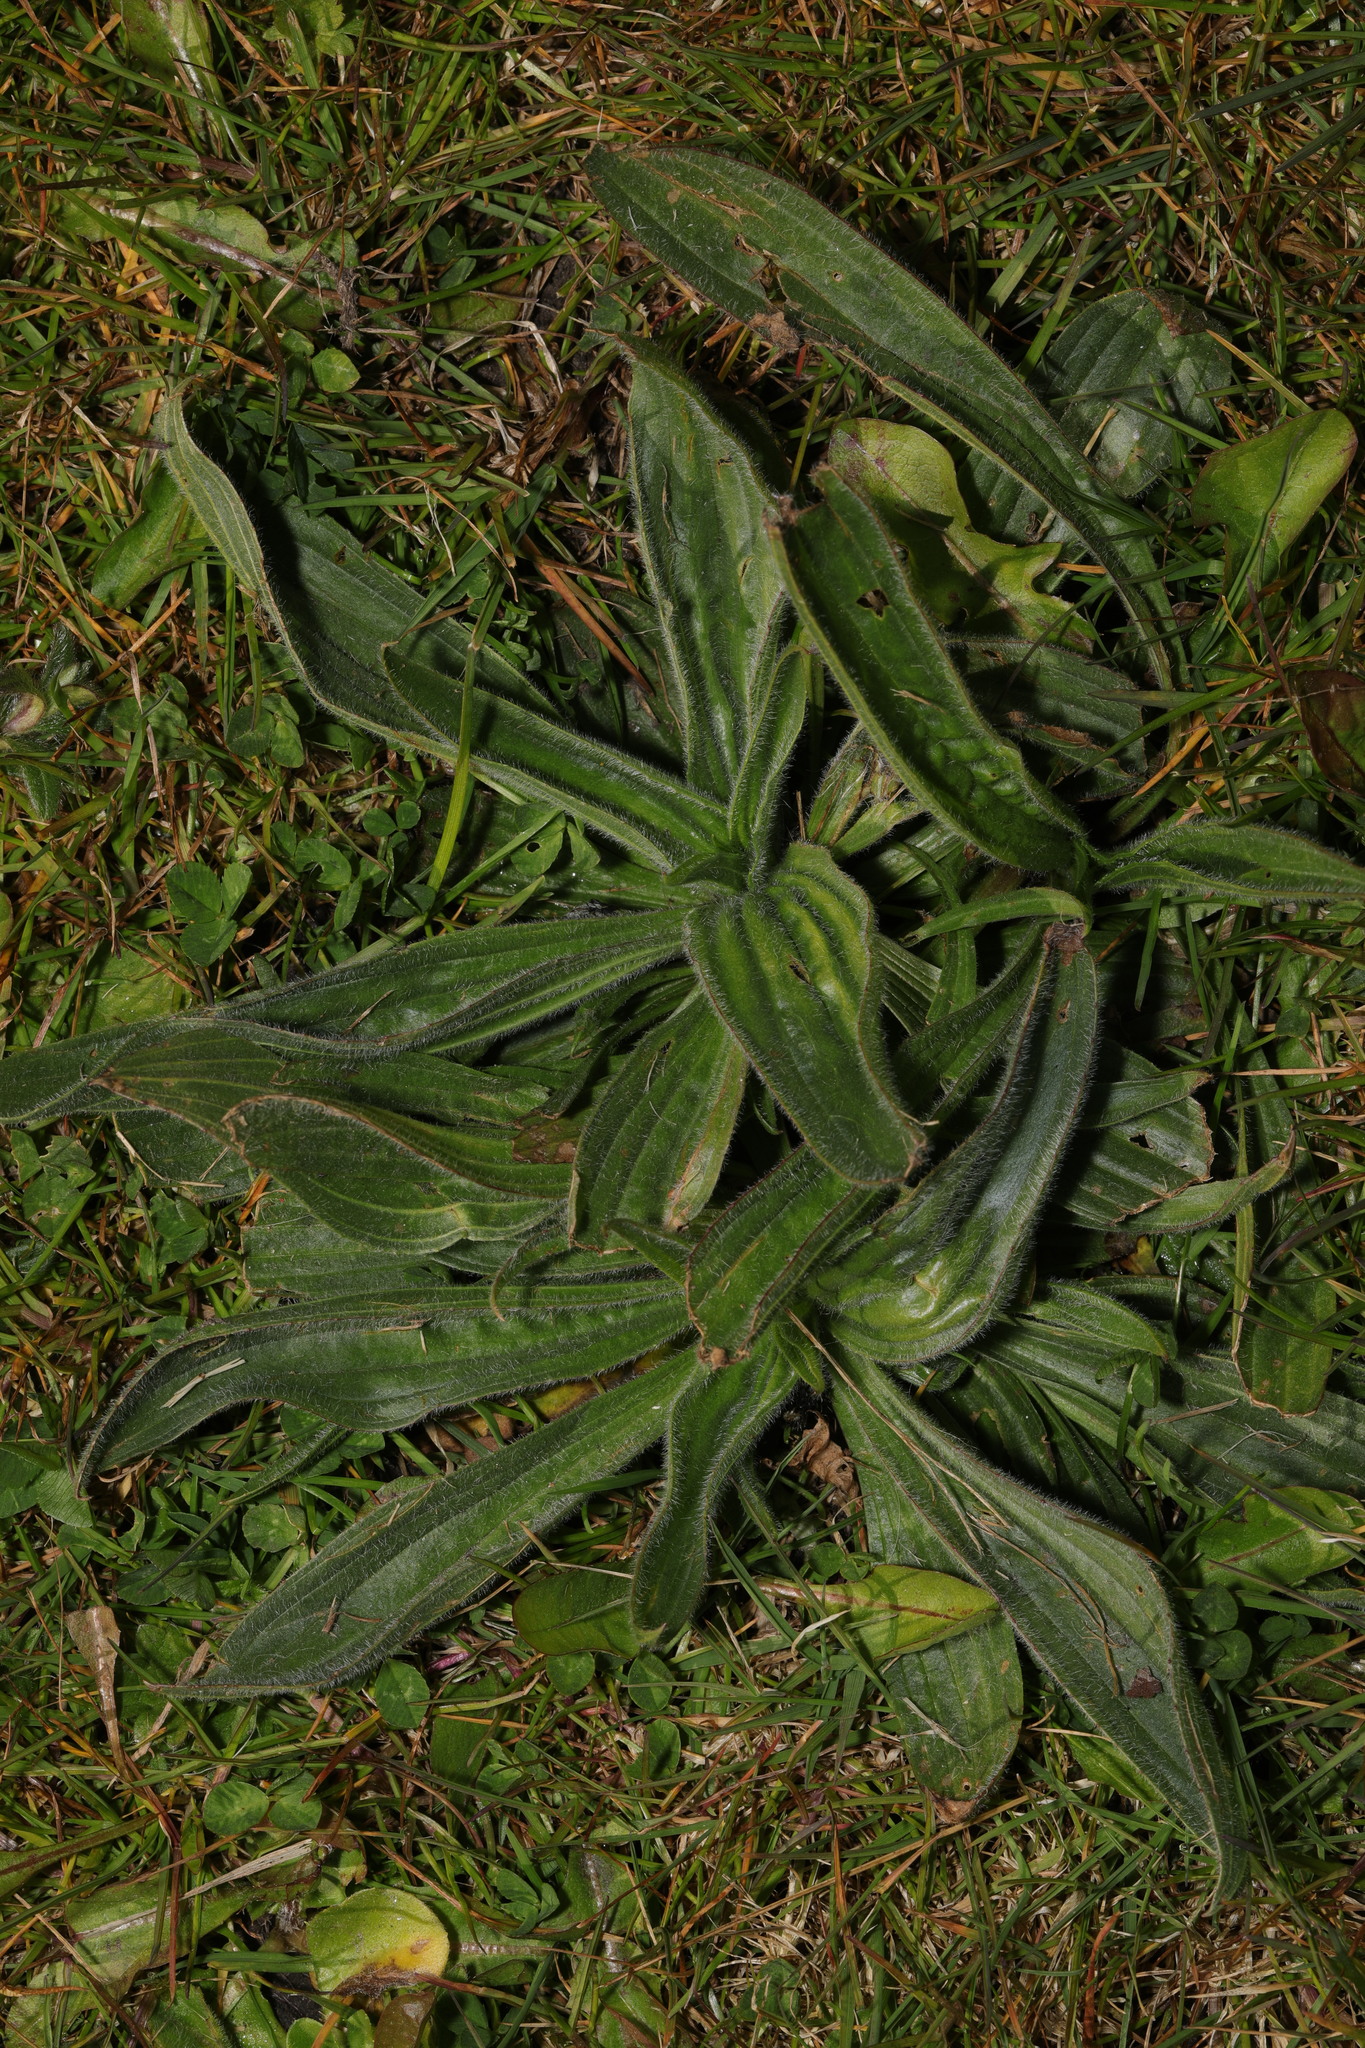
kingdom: Plantae
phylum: Tracheophyta
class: Magnoliopsida
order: Lamiales
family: Plantaginaceae
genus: Plantago
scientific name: Plantago lanceolata
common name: Ribwort plantain
